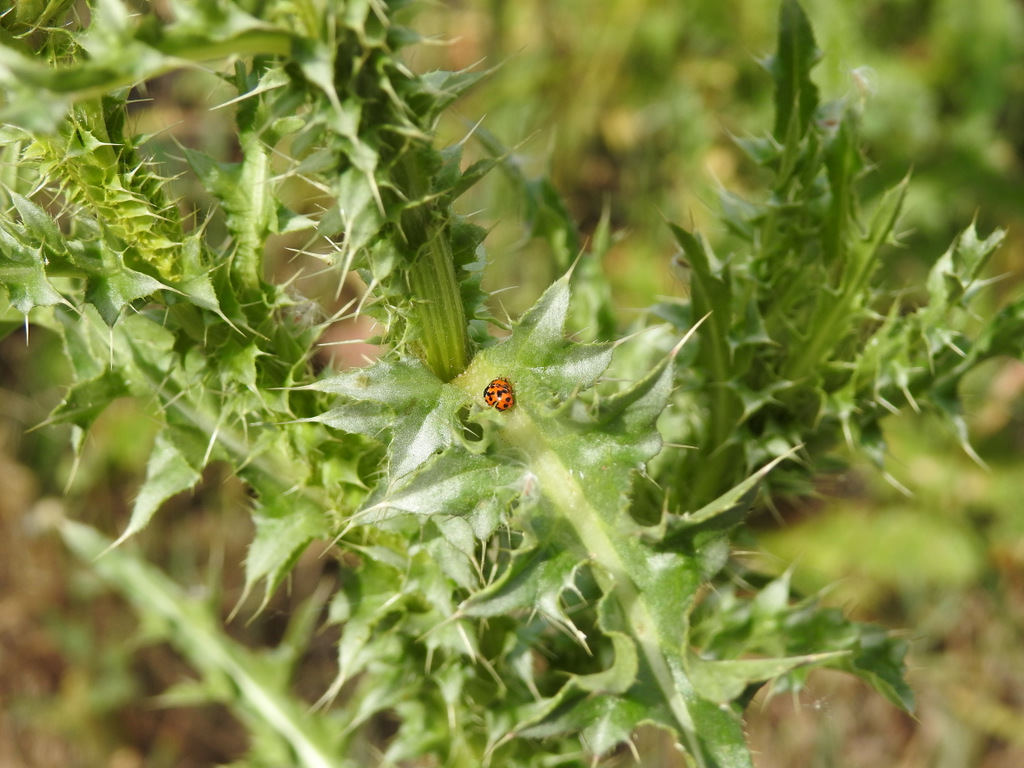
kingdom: Animalia
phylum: Arthropoda
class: Insecta
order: Coleoptera
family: Coccinellidae
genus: Hippodamia
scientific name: Hippodamia convergens
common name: Convergent lady beetle
